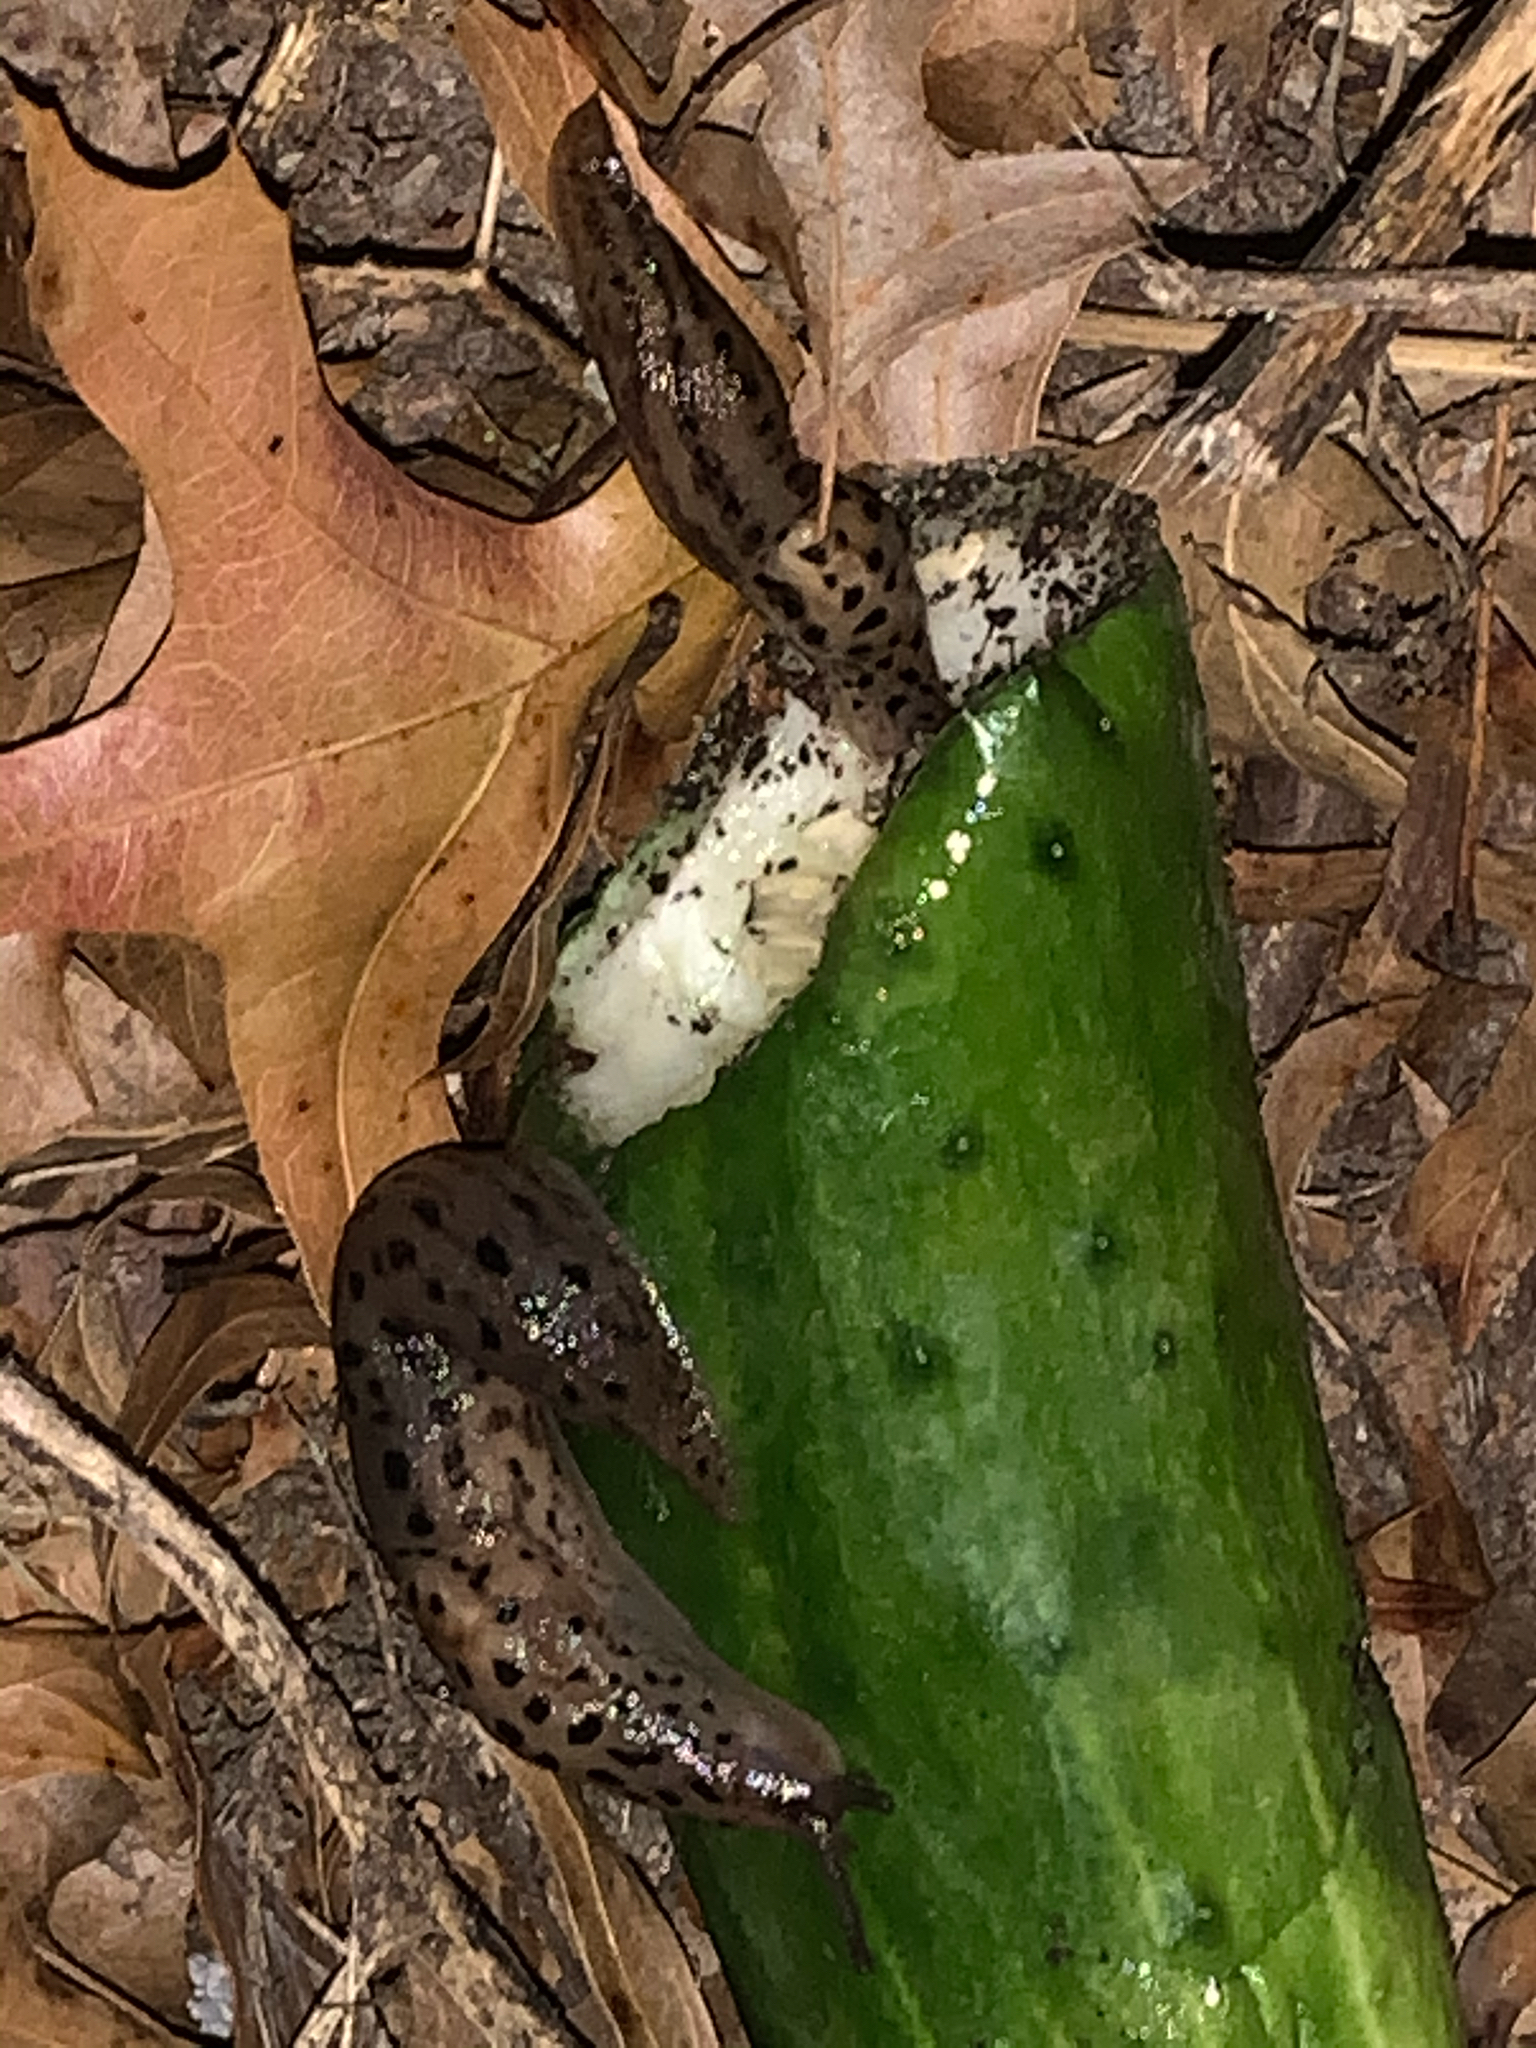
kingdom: Animalia
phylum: Mollusca
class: Gastropoda
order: Stylommatophora
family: Limacidae
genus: Limax
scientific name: Limax maximus
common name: Great grey slug
